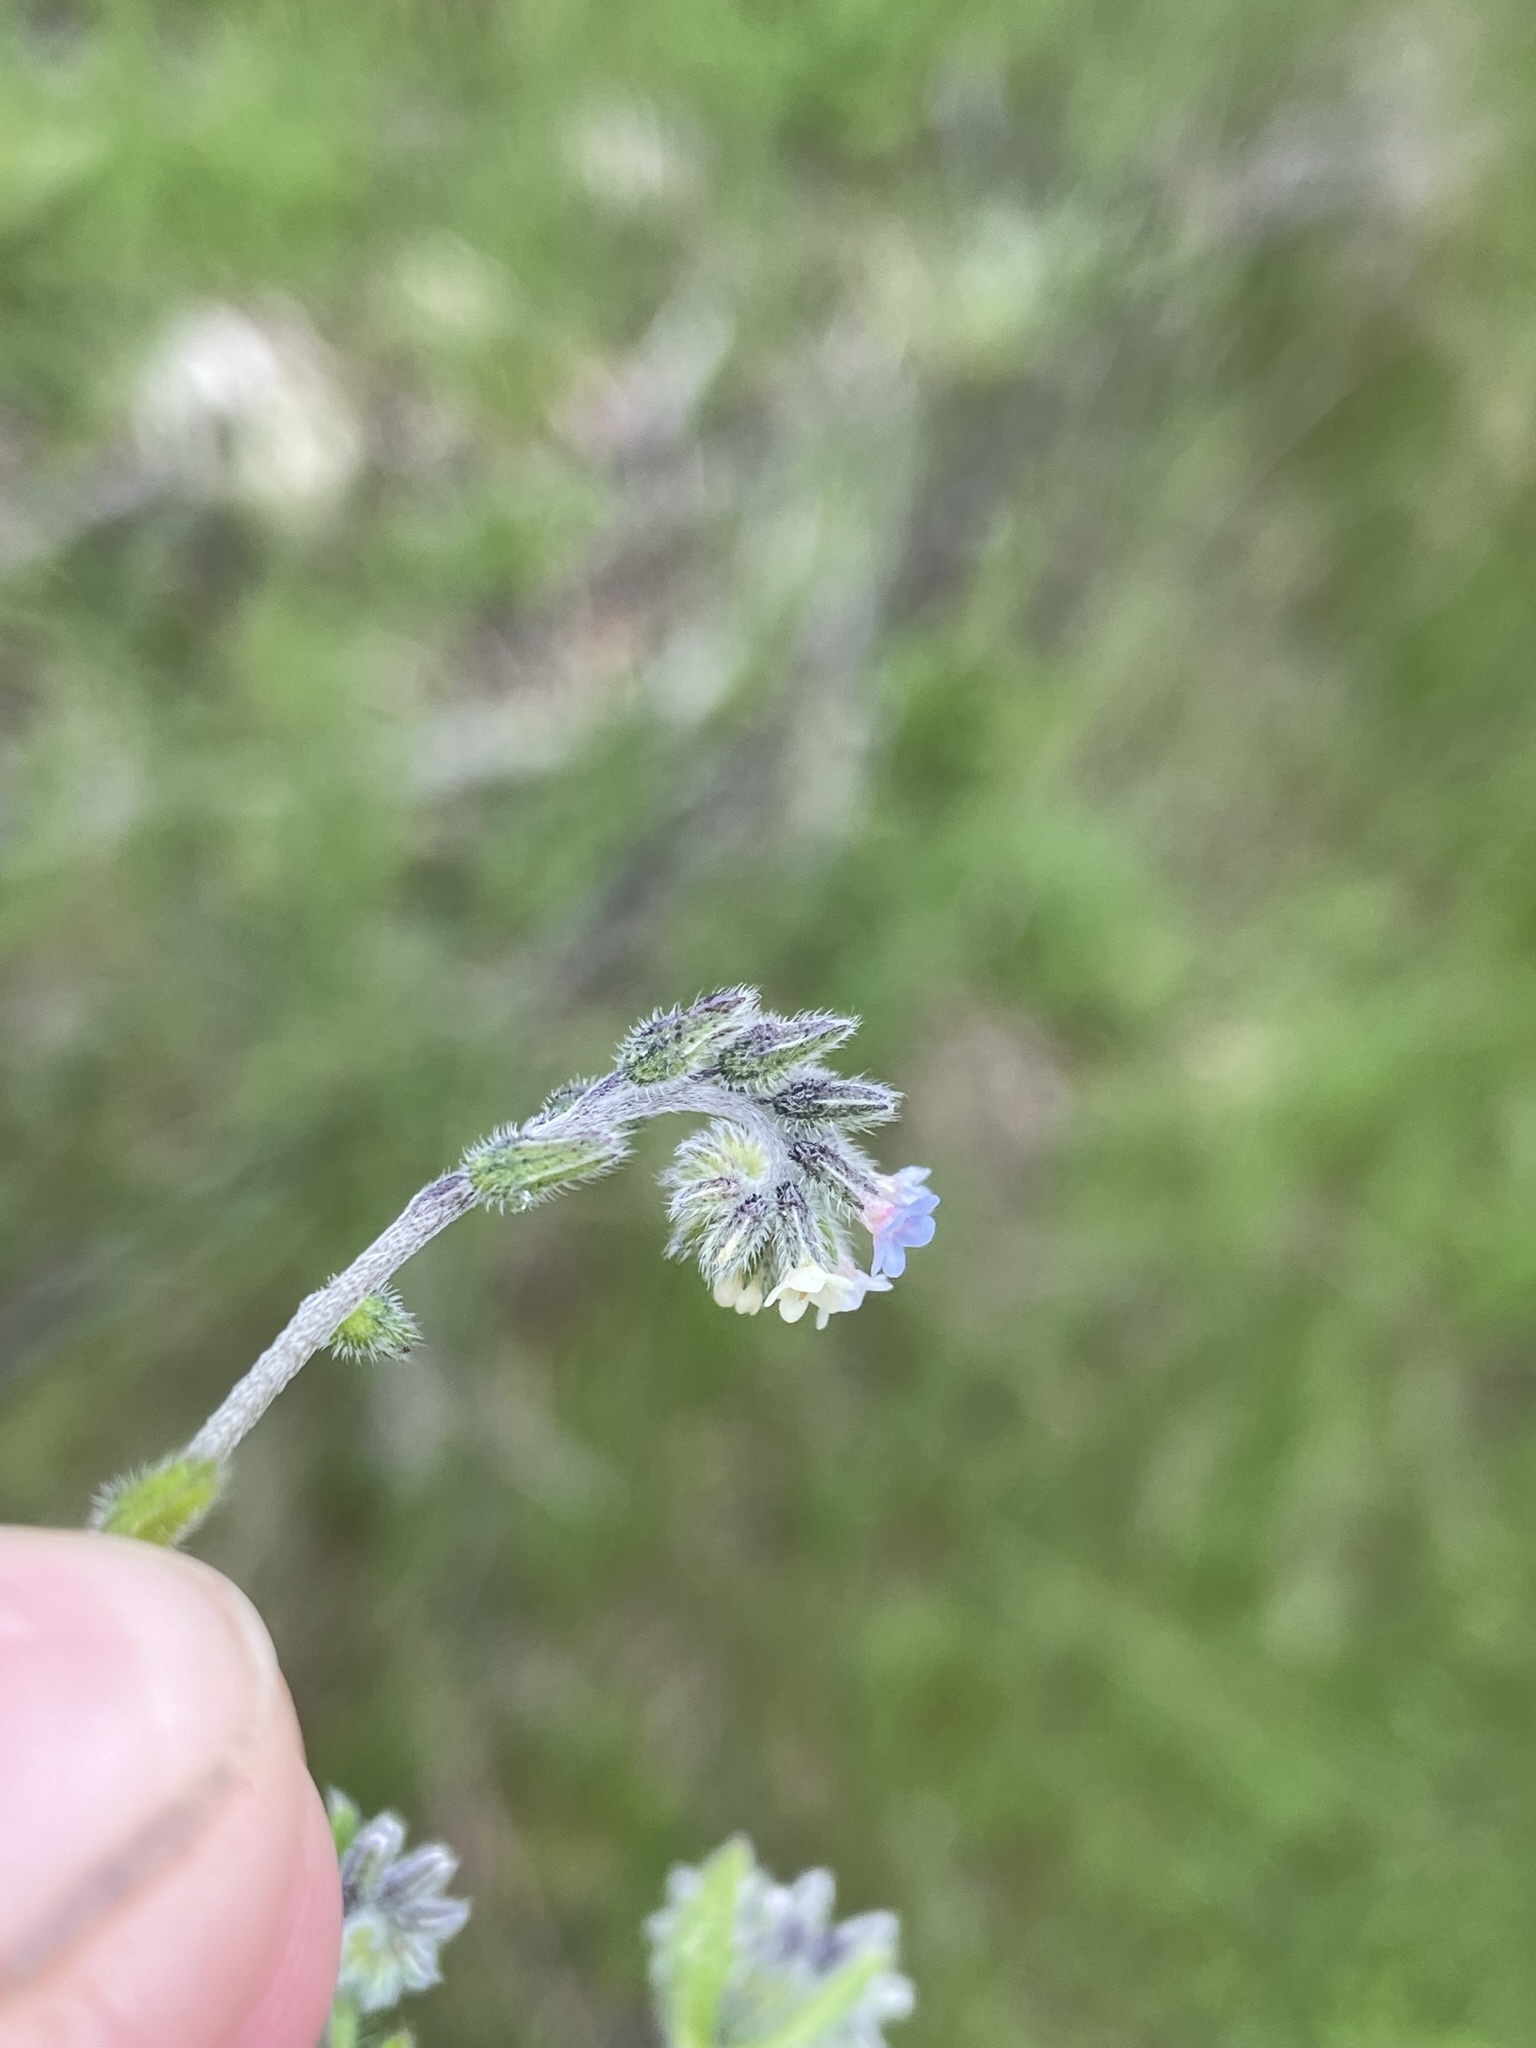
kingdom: Plantae
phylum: Tracheophyta
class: Magnoliopsida
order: Boraginales
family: Boraginaceae
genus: Myosotis
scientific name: Myosotis discolor
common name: Changing forget-me-not
